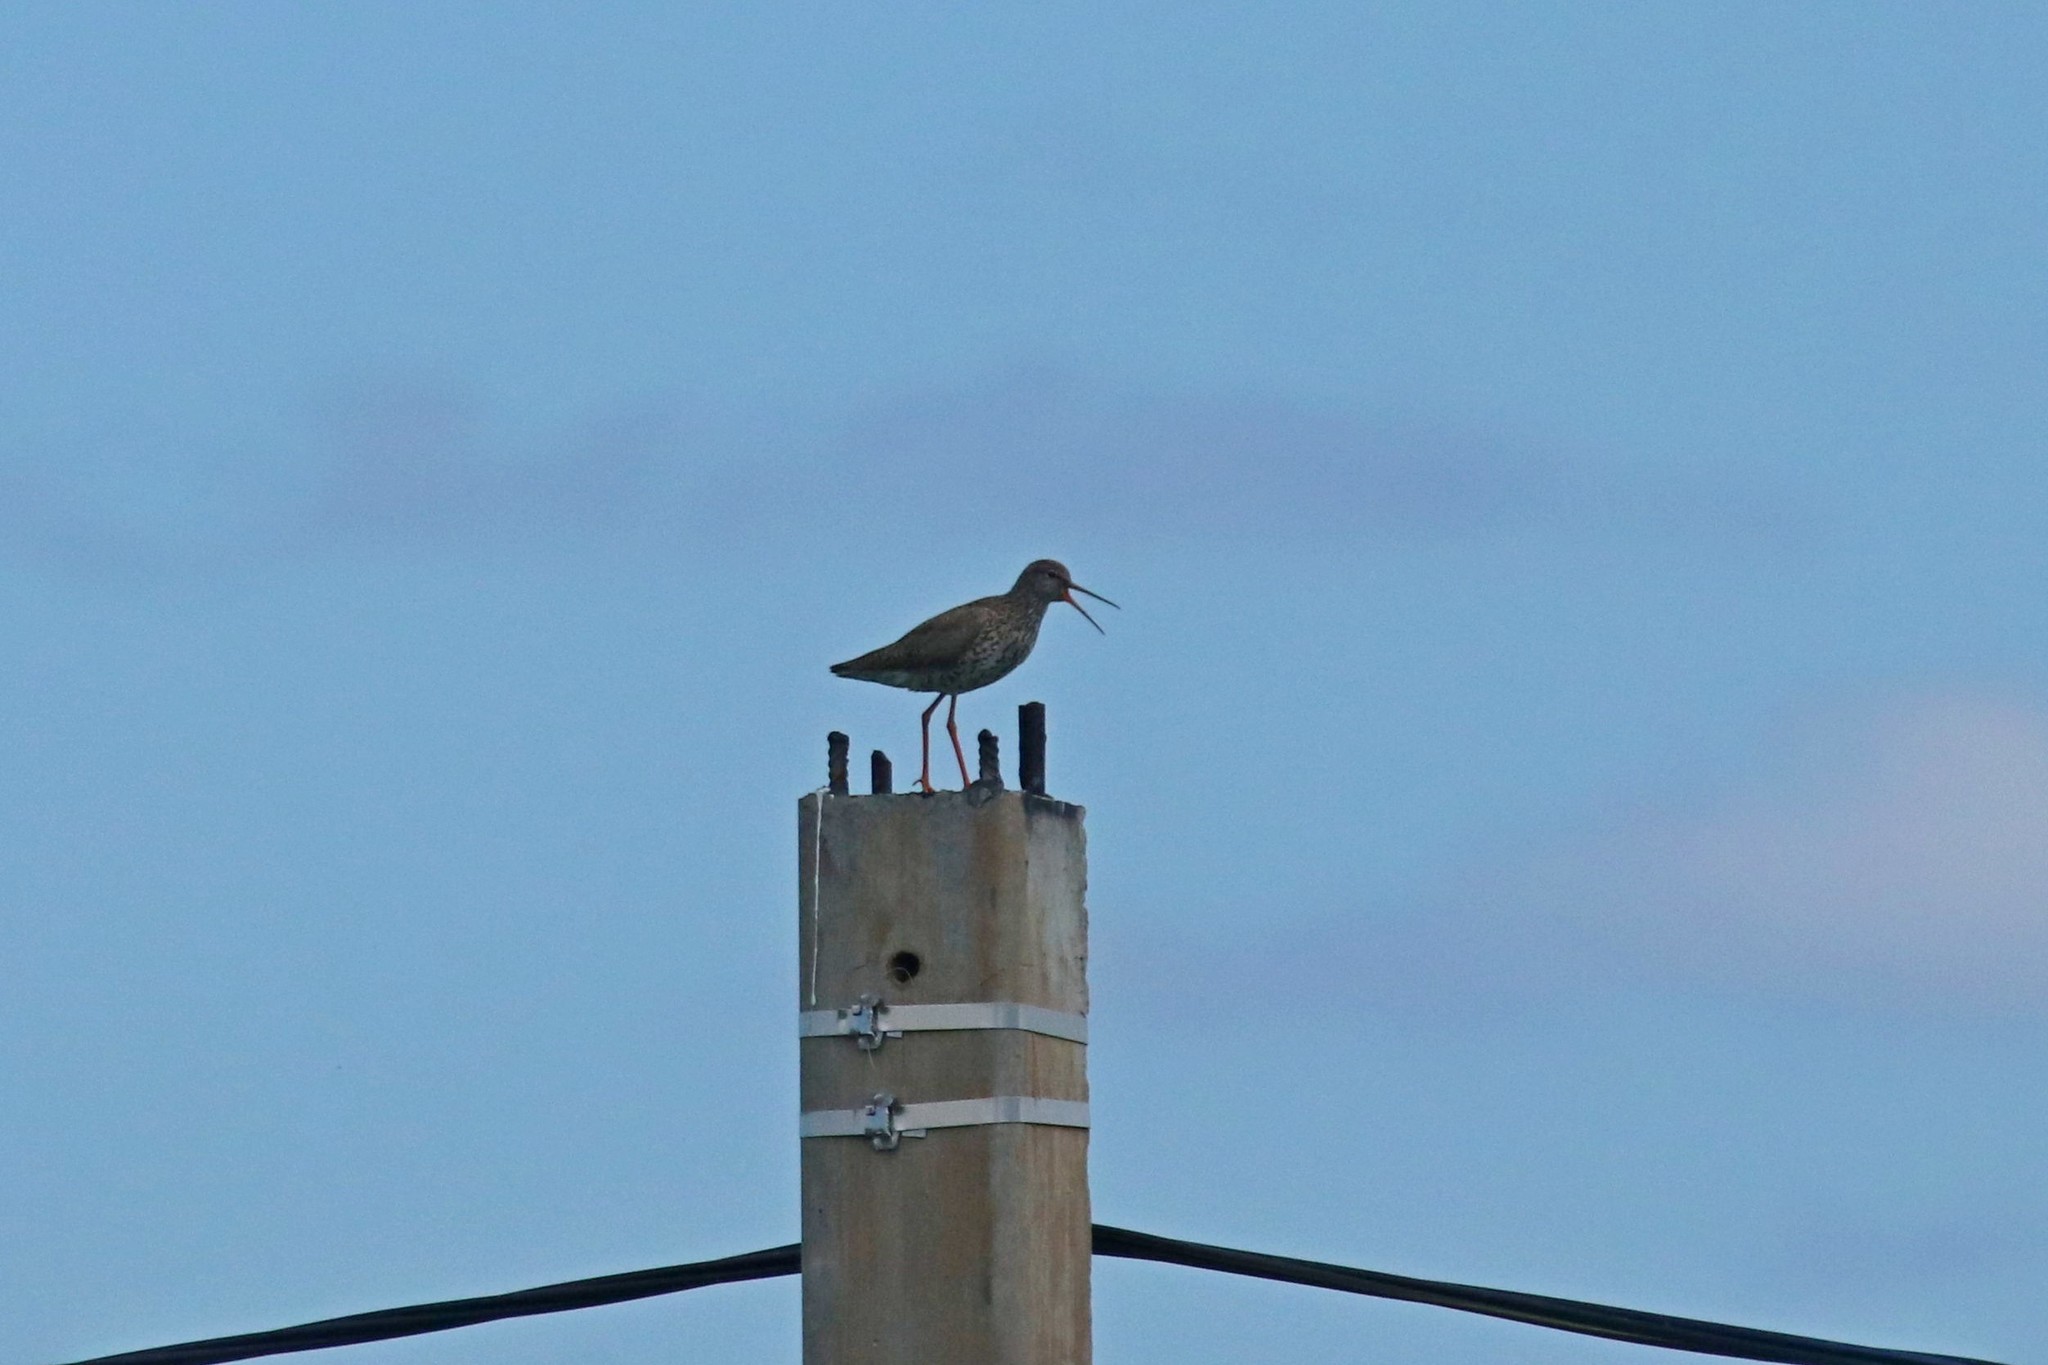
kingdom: Animalia
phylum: Chordata
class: Aves
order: Charadriiformes
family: Scolopacidae
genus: Tringa
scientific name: Tringa totanus
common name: Common redshank
